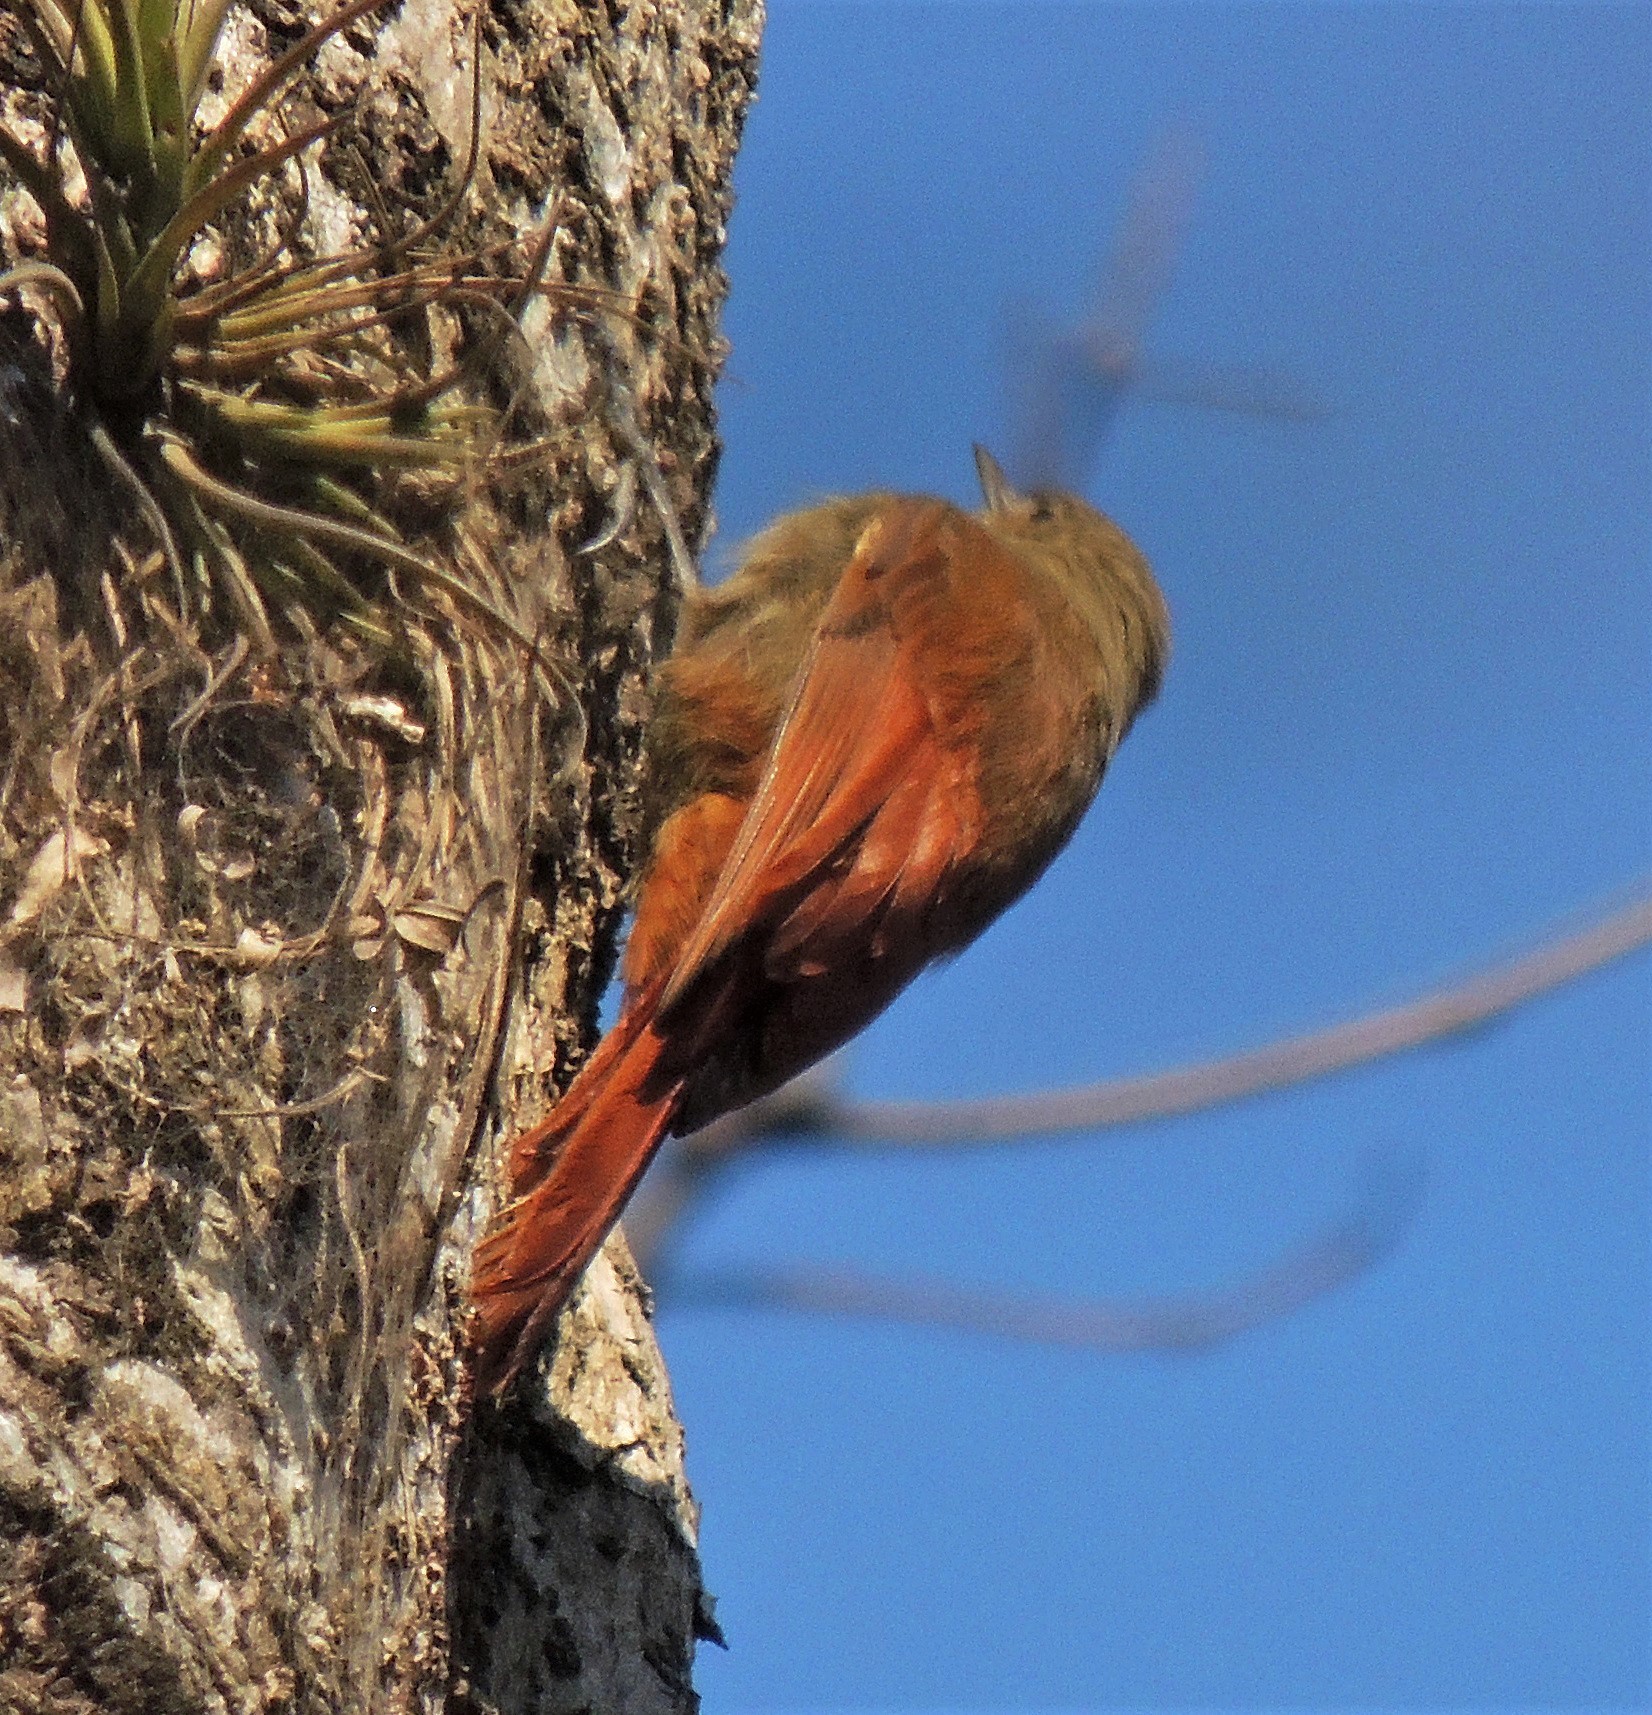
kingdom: Animalia
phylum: Chordata
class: Aves
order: Passeriformes
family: Furnariidae
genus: Sittasomus
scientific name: Sittasomus griseicapillus
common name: Olivaceous woodcreeper
